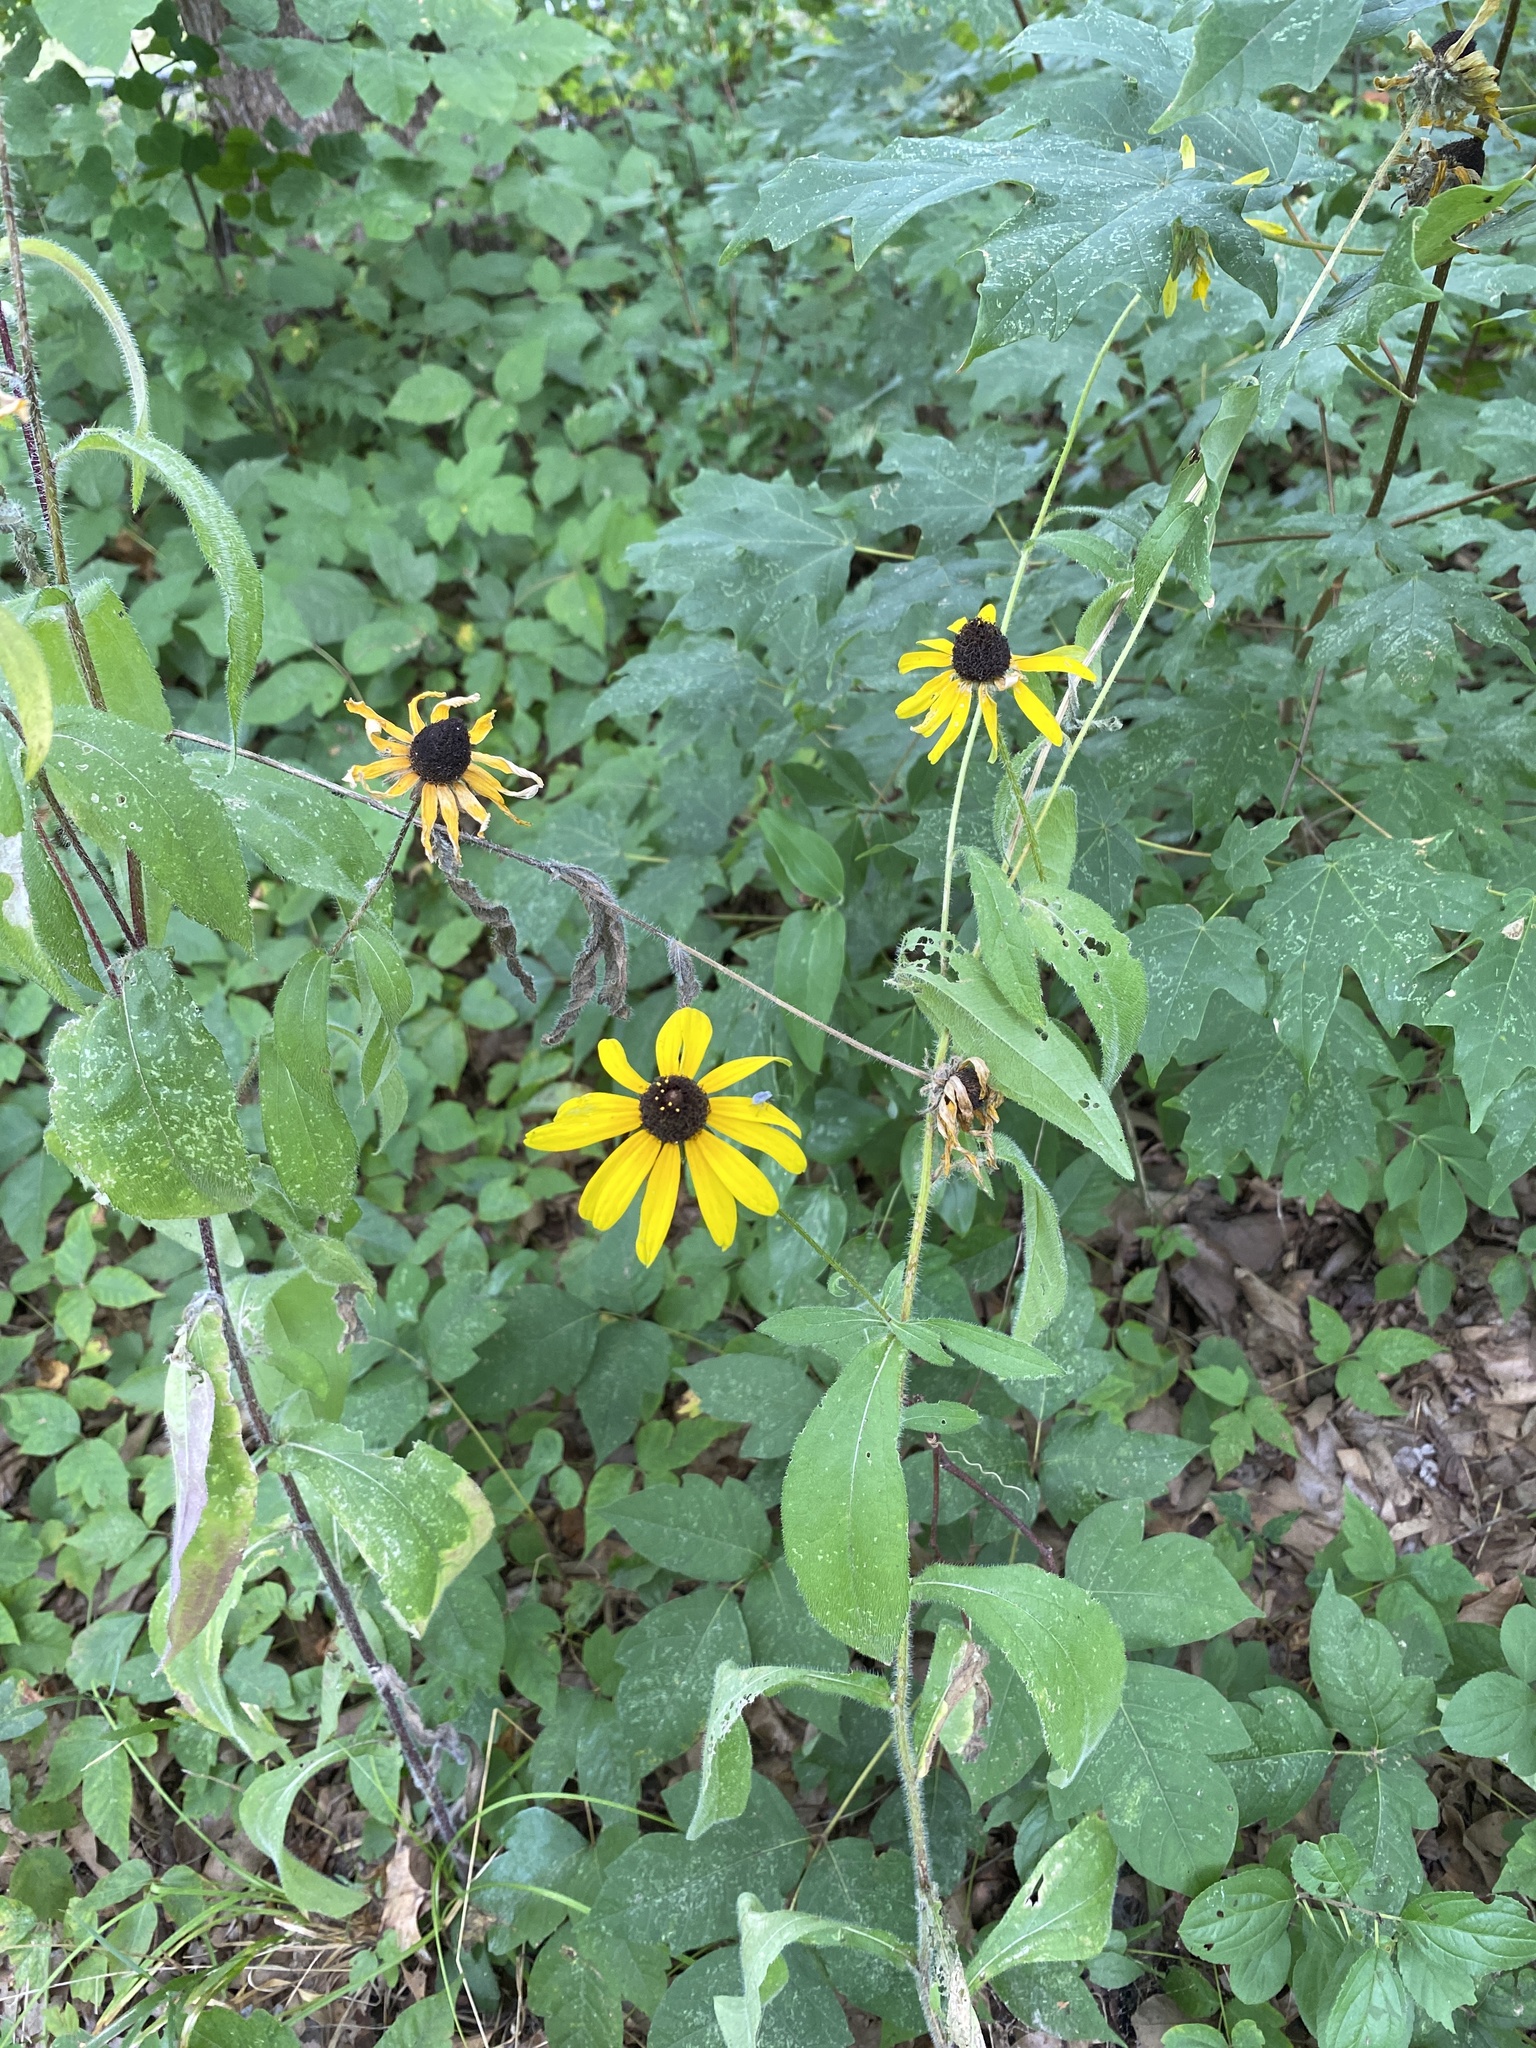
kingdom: Plantae
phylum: Tracheophyta
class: Magnoliopsida
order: Asterales
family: Asteraceae
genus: Rudbeckia
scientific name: Rudbeckia hirta
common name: Black-eyed-susan
